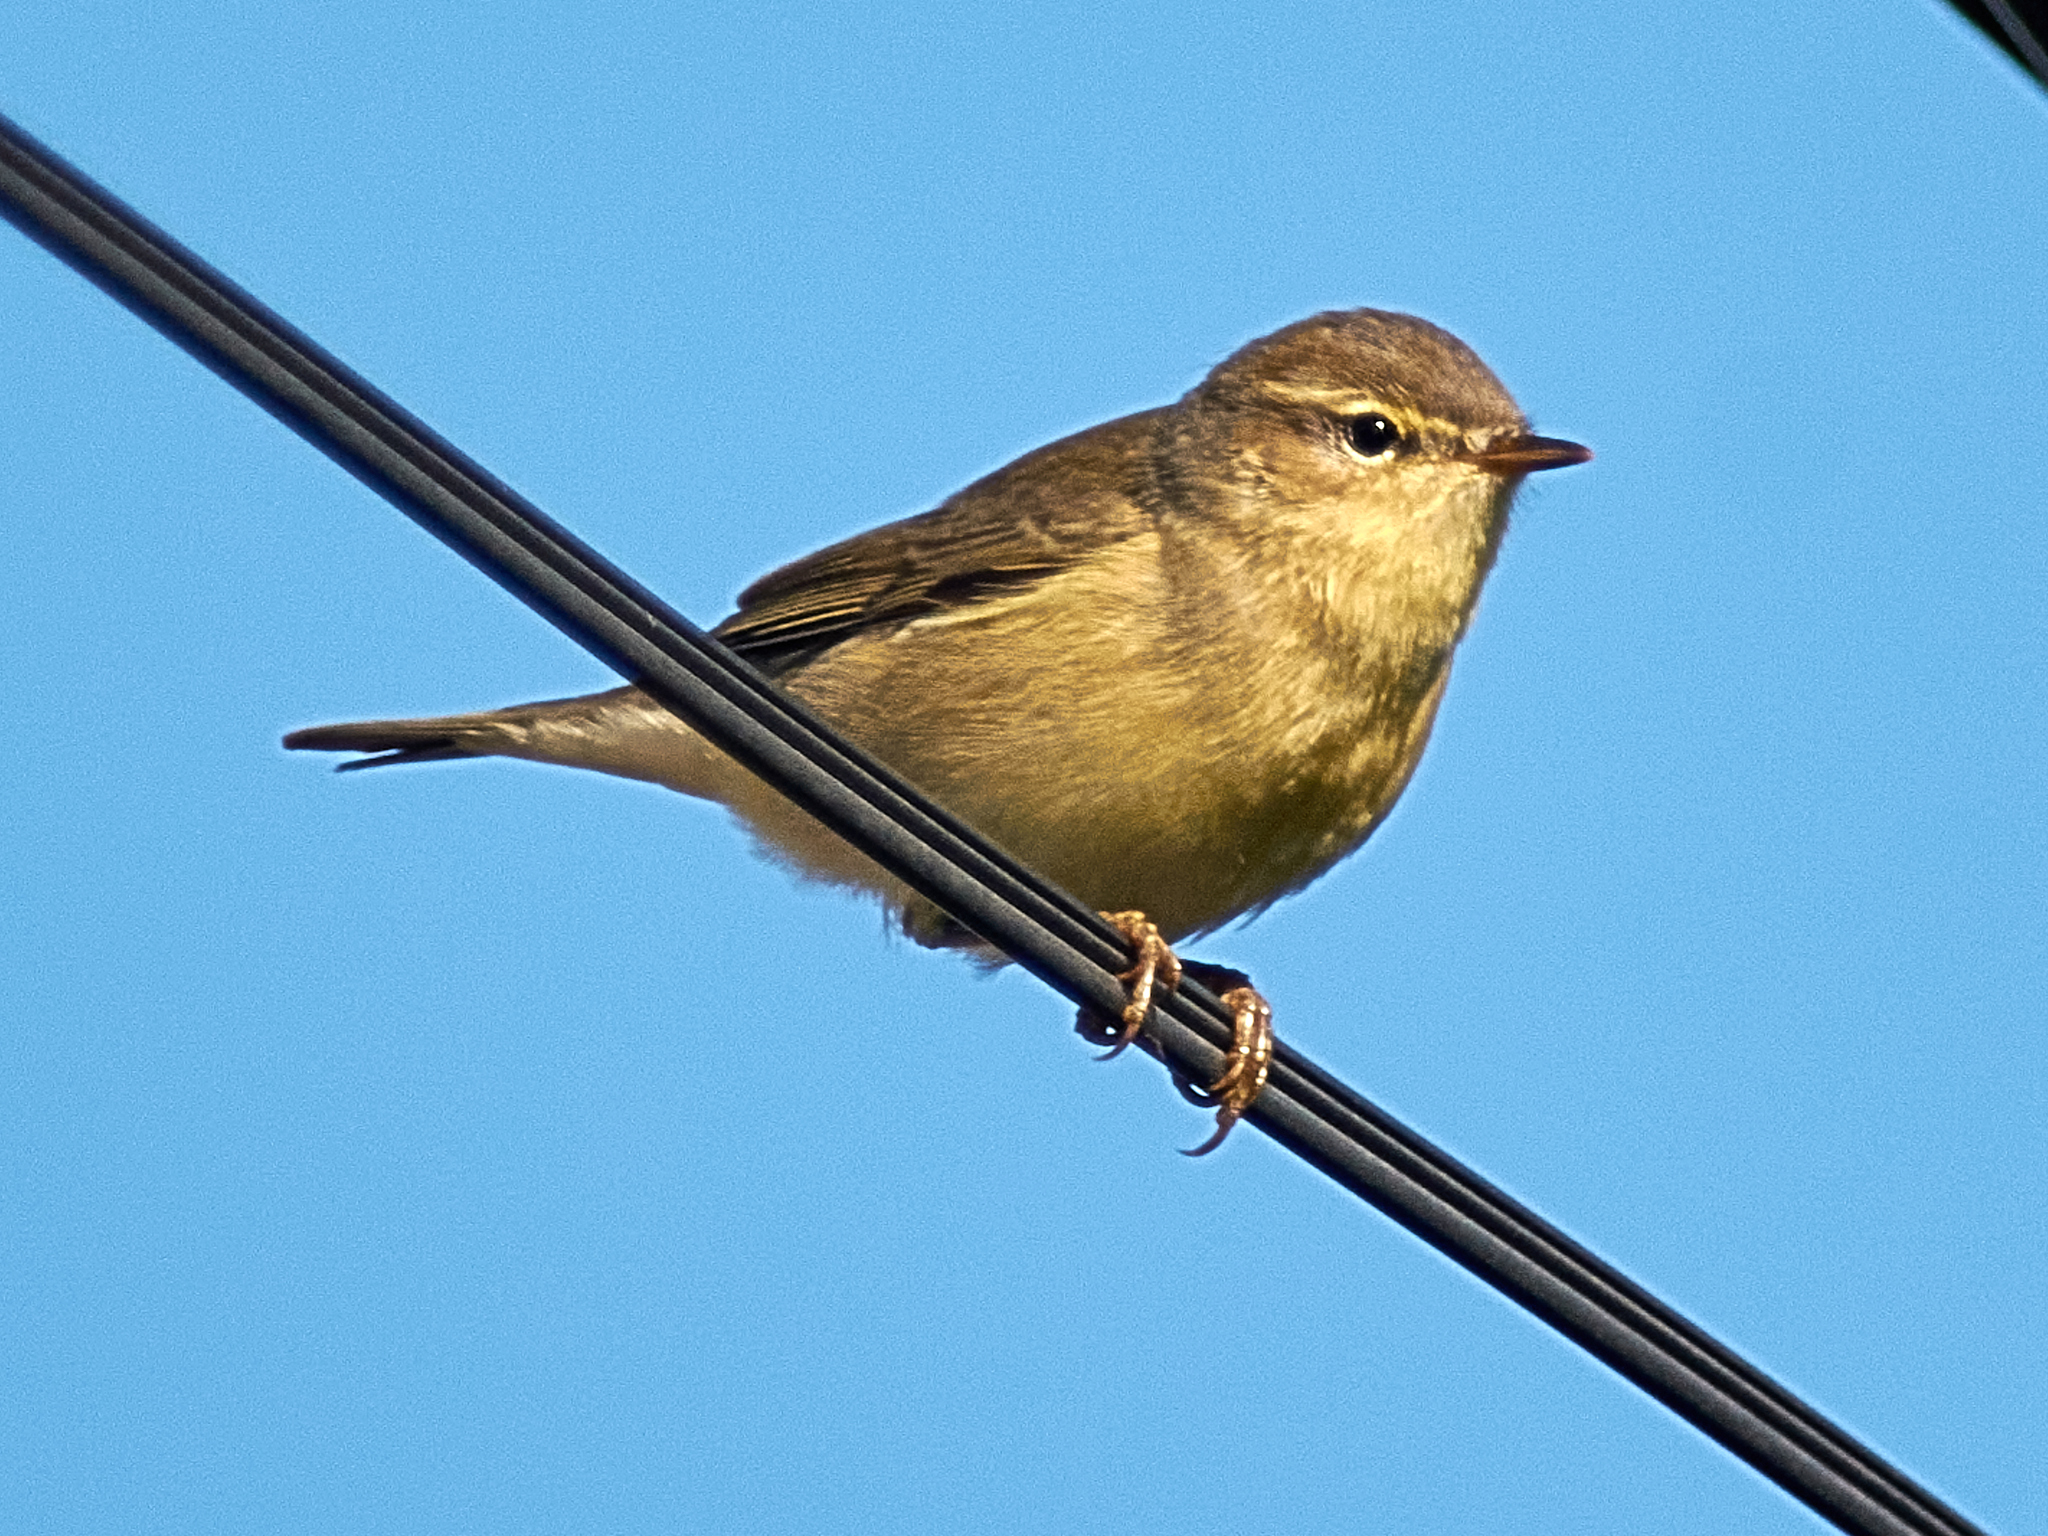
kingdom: Animalia
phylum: Chordata
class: Aves
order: Passeriformes
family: Phylloscopidae
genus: Phylloscopus
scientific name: Phylloscopus trochilus
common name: Willow warbler
